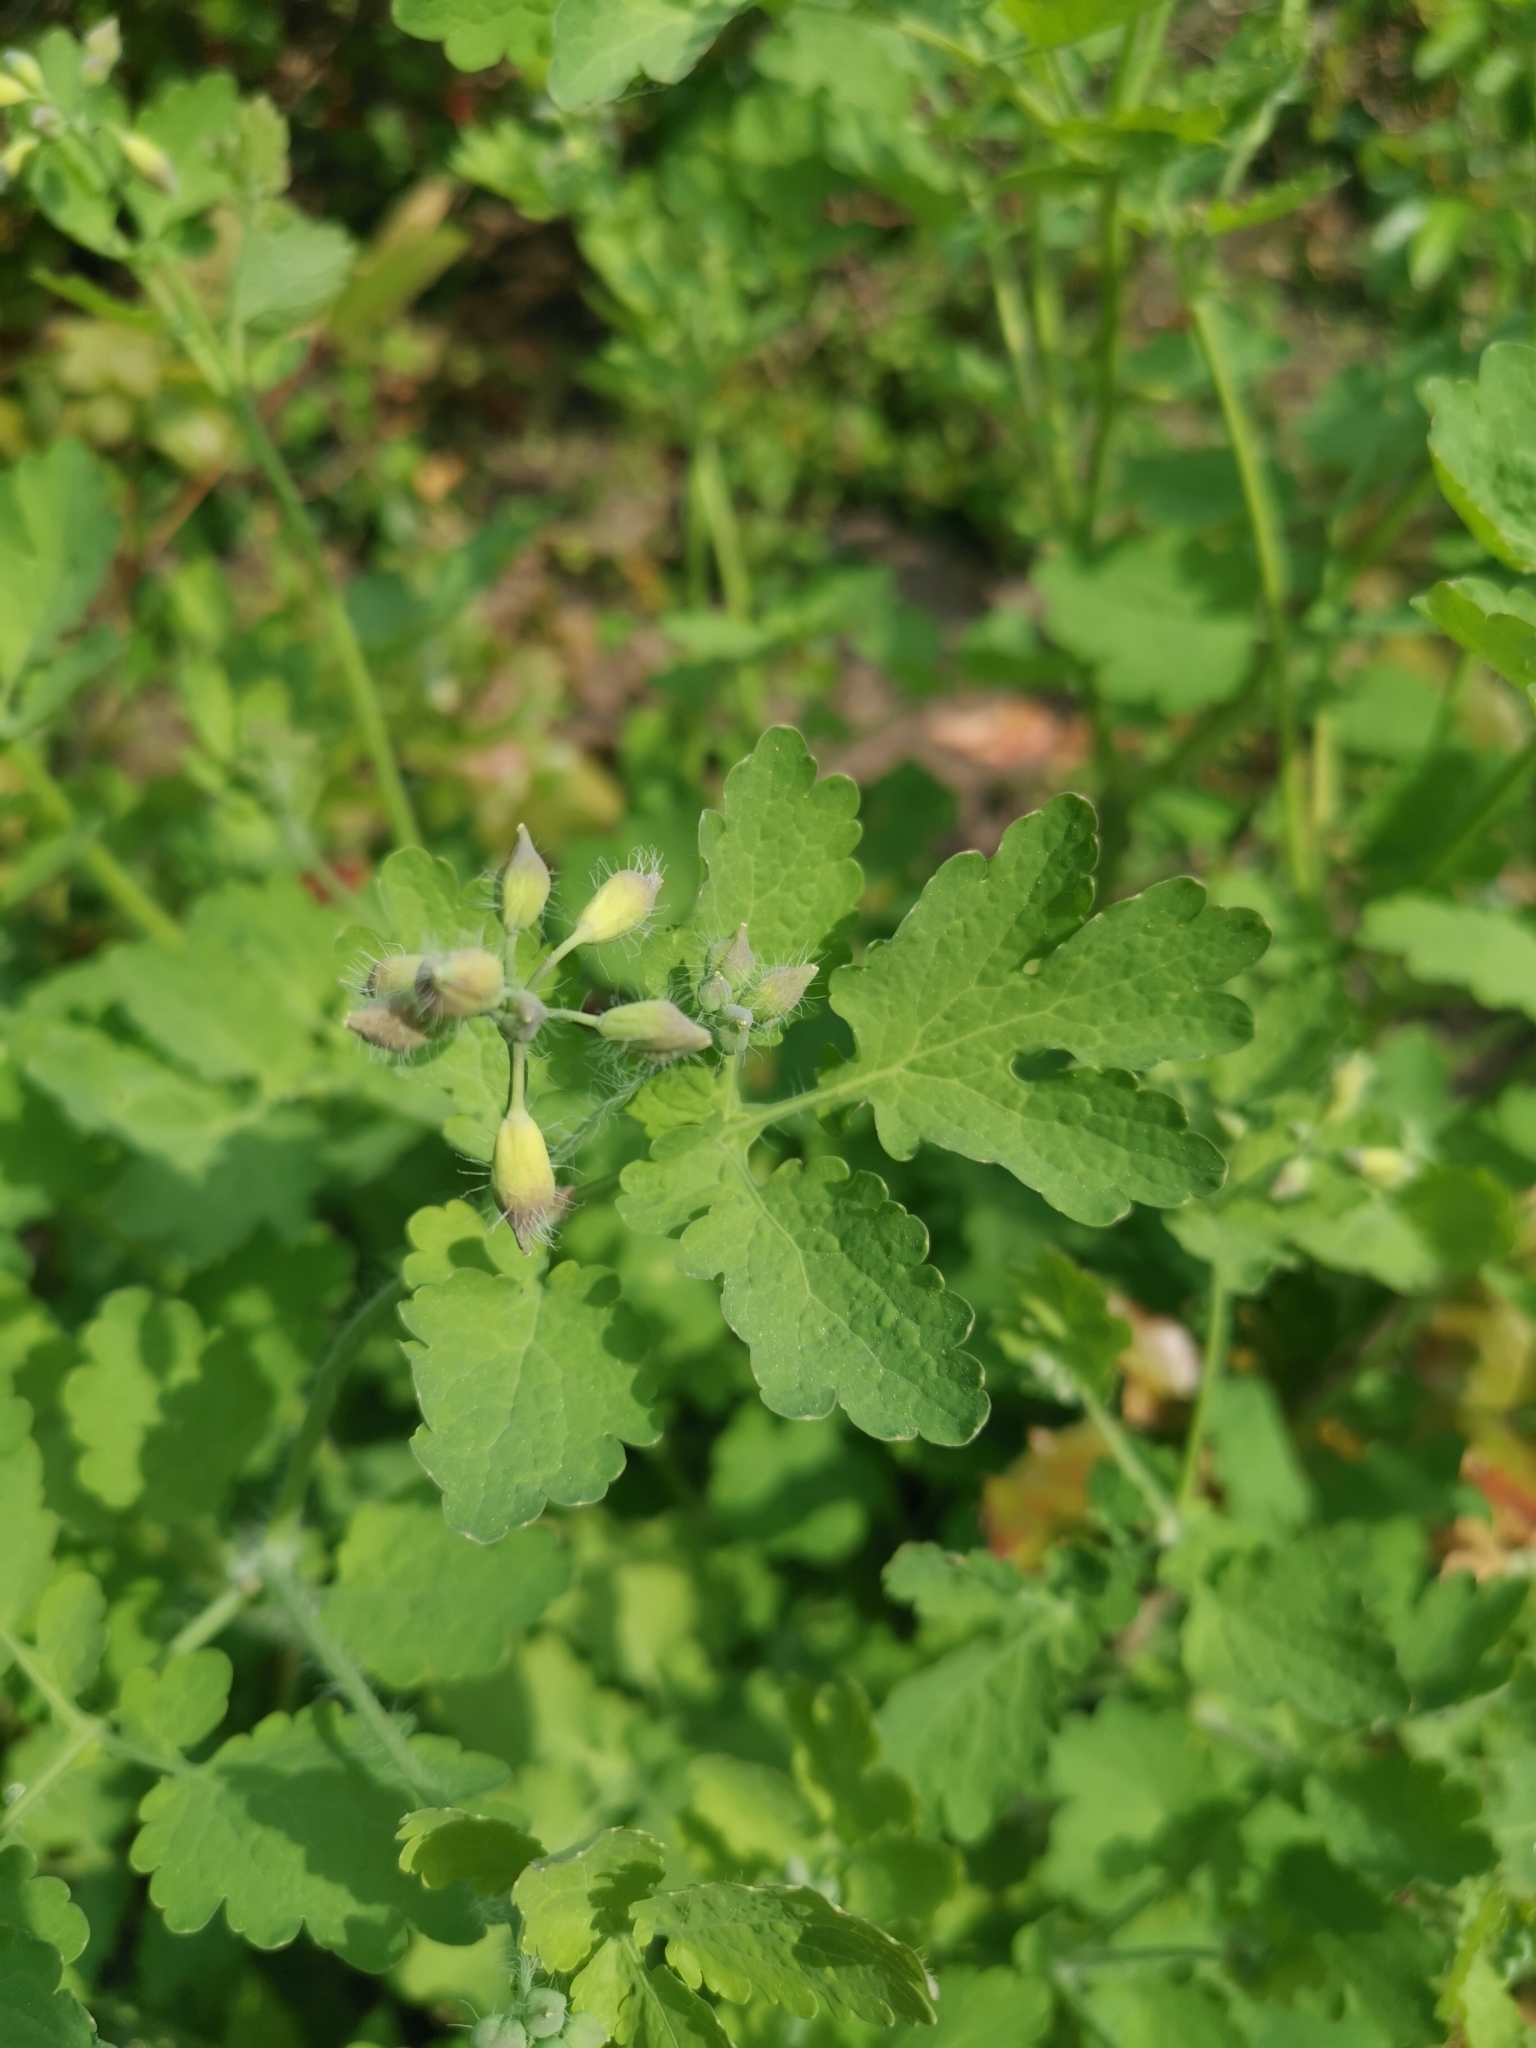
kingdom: Plantae
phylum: Tracheophyta
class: Magnoliopsida
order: Ranunculales
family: Papaveraceae
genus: Chelidonium
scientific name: Chelidonium majus
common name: Greater celandine
